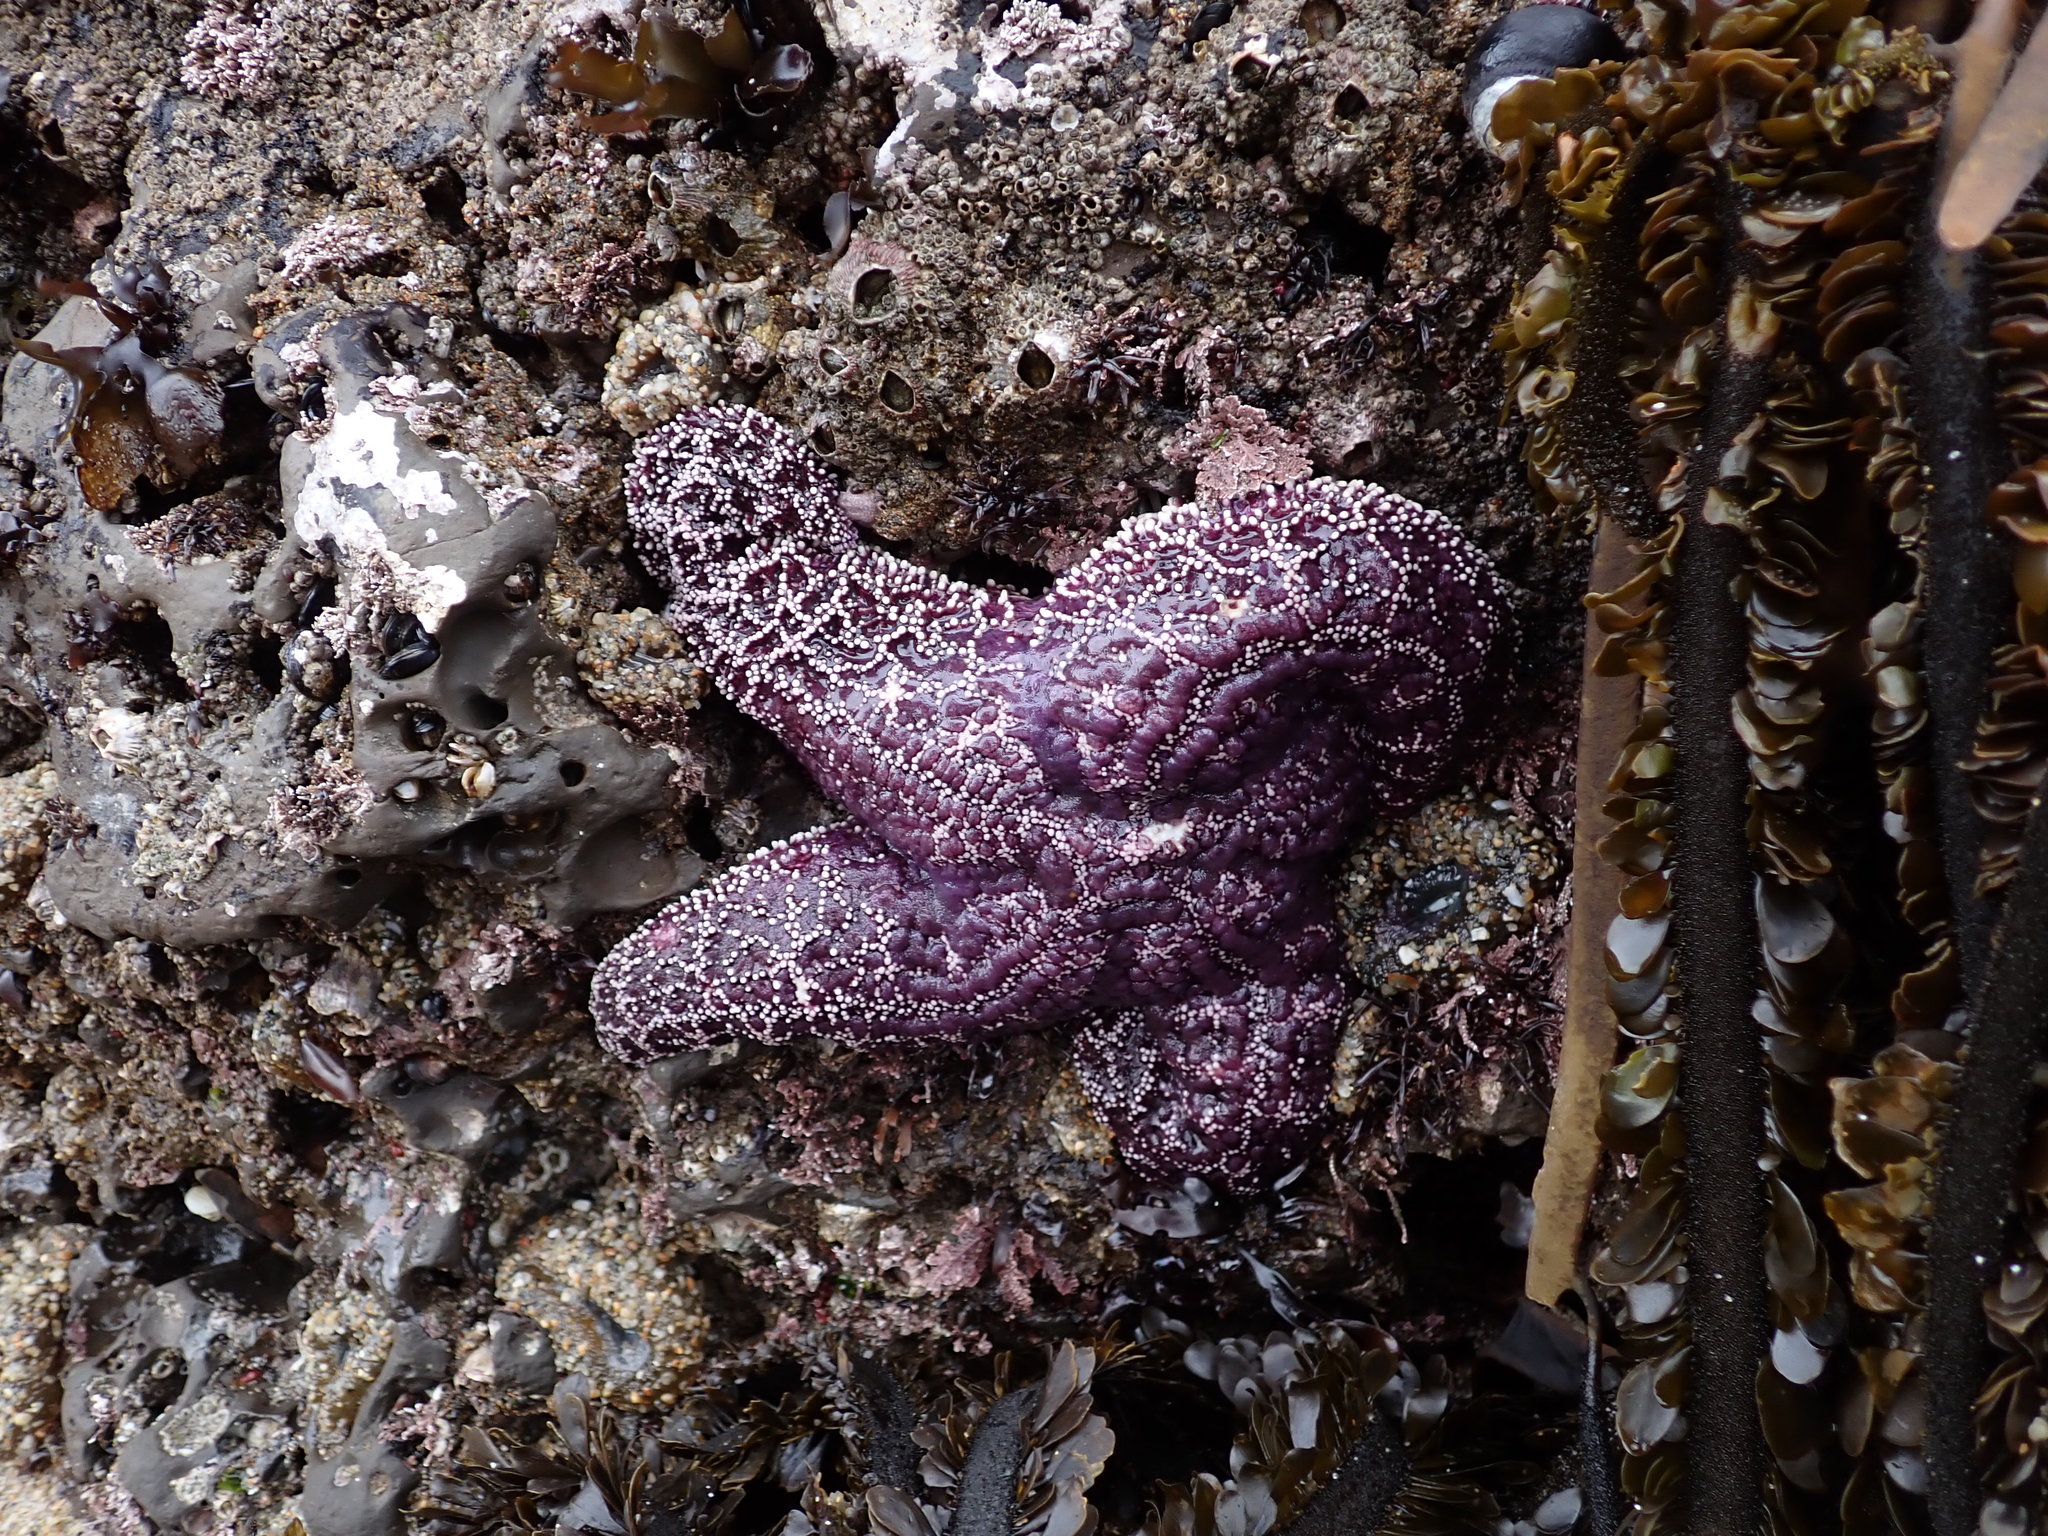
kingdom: Animalia
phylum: Echinodermata
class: Asteroidea
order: Forcipulatida
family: Asteriidae
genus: Pisaster
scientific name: Pisaster ochraceus
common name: Ochre stars
